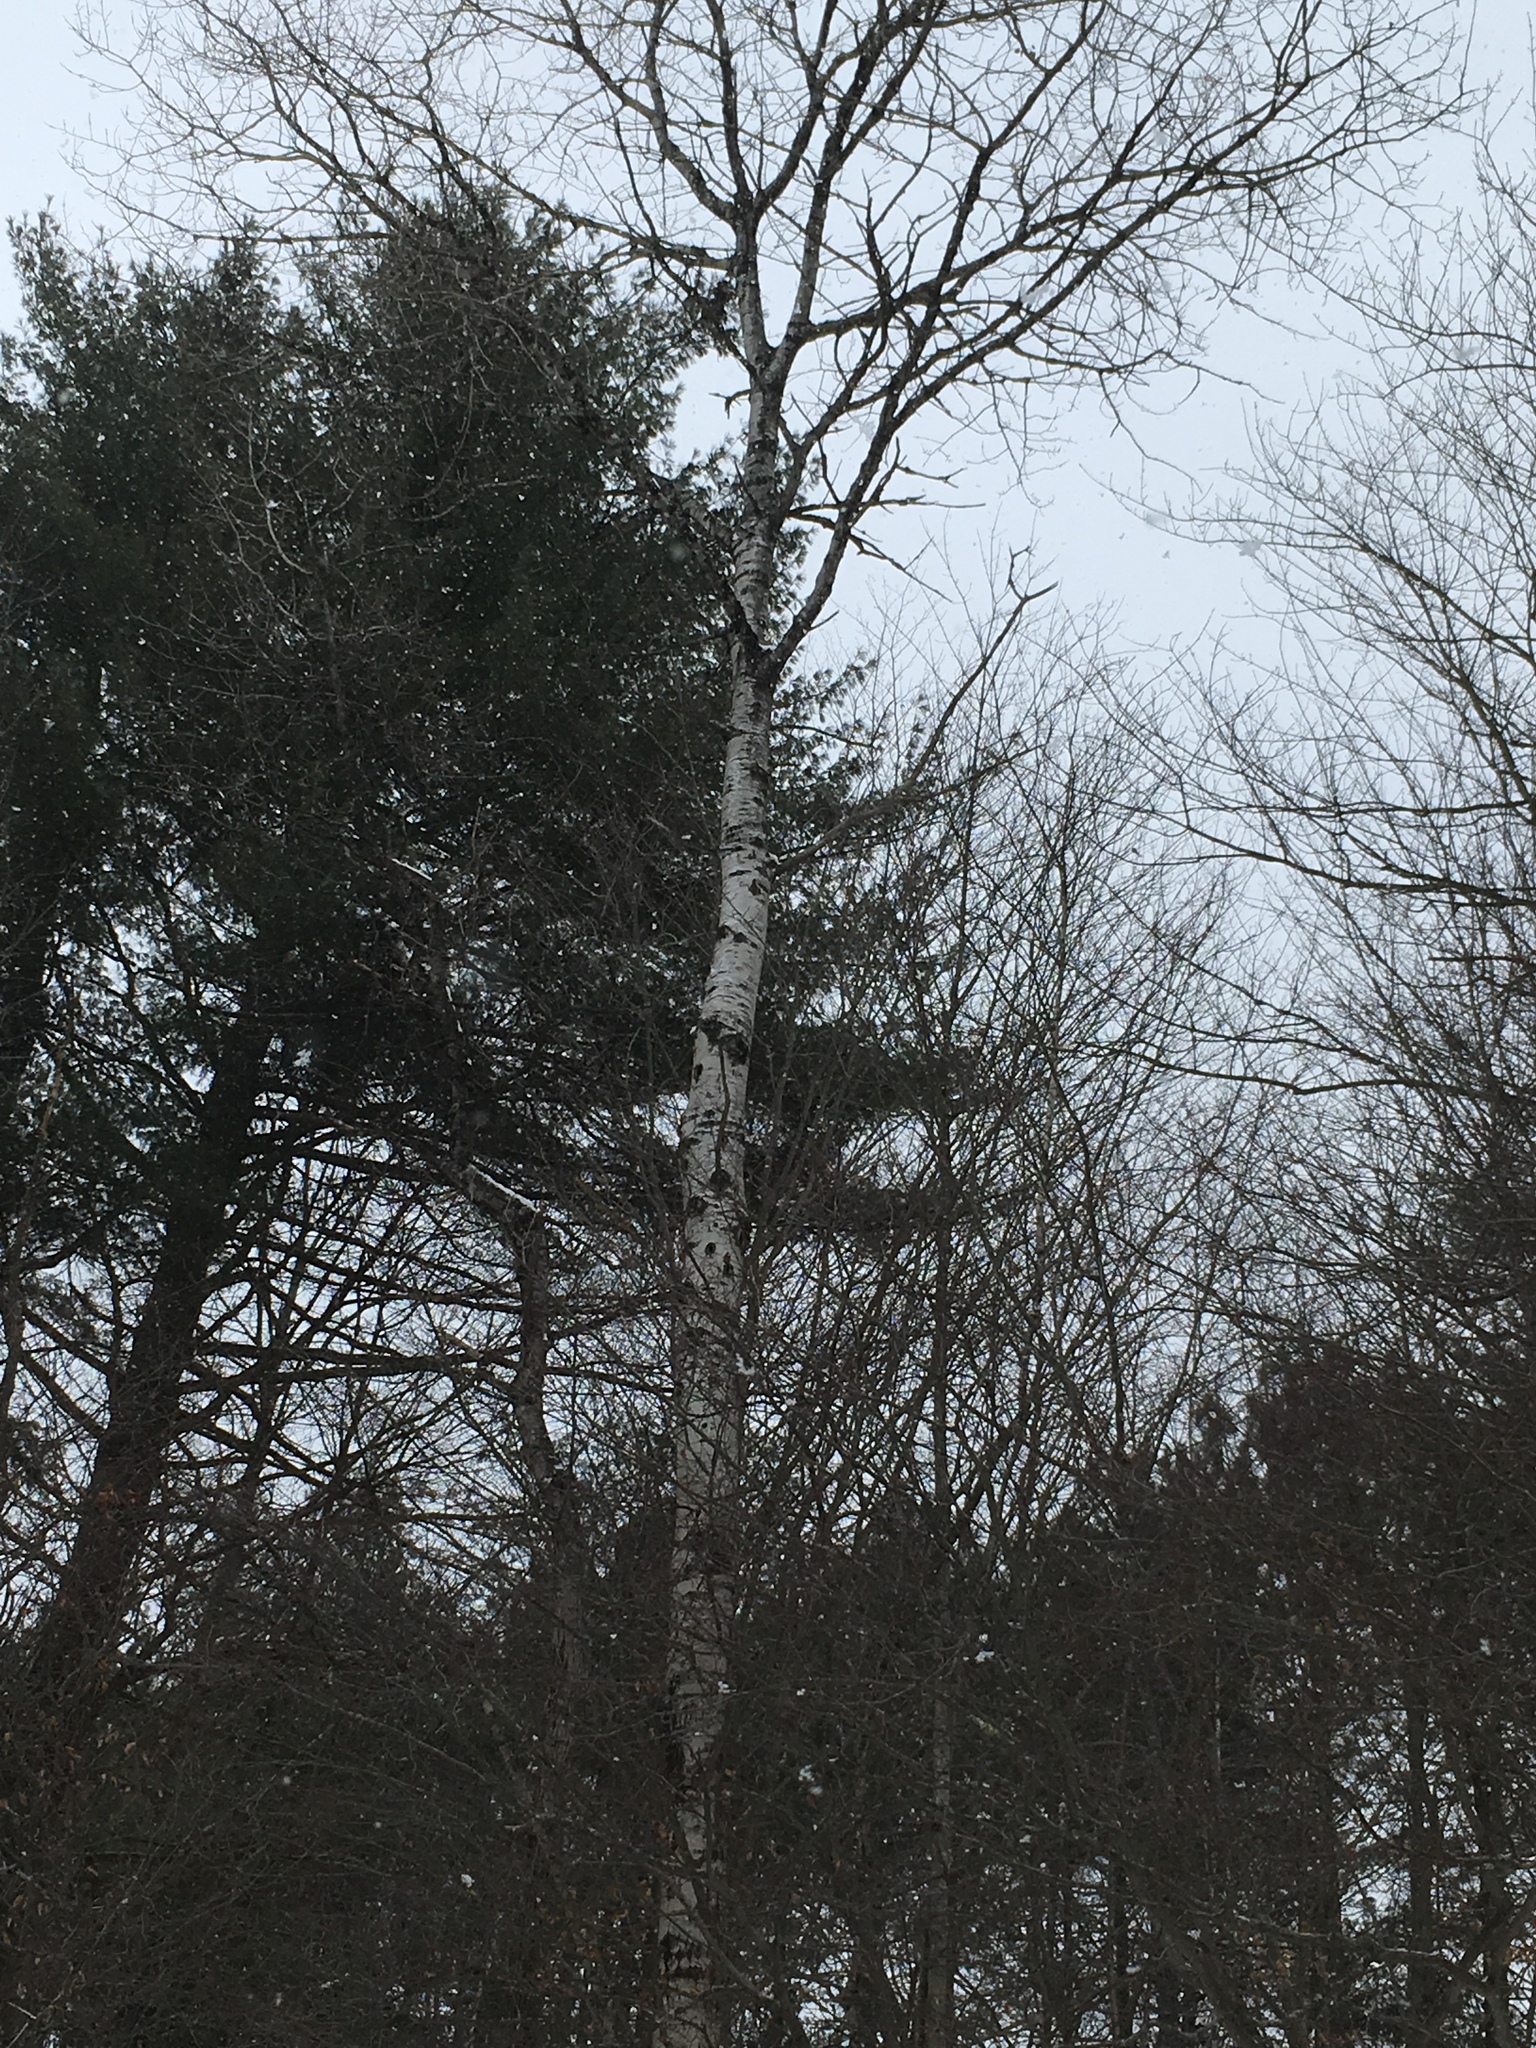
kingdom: Plantae
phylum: Tracheophyta
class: Magnoliopsida
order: Malpighiales
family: Salicaceae
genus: Populus
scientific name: Populus tremuloides
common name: Quaking aspen
